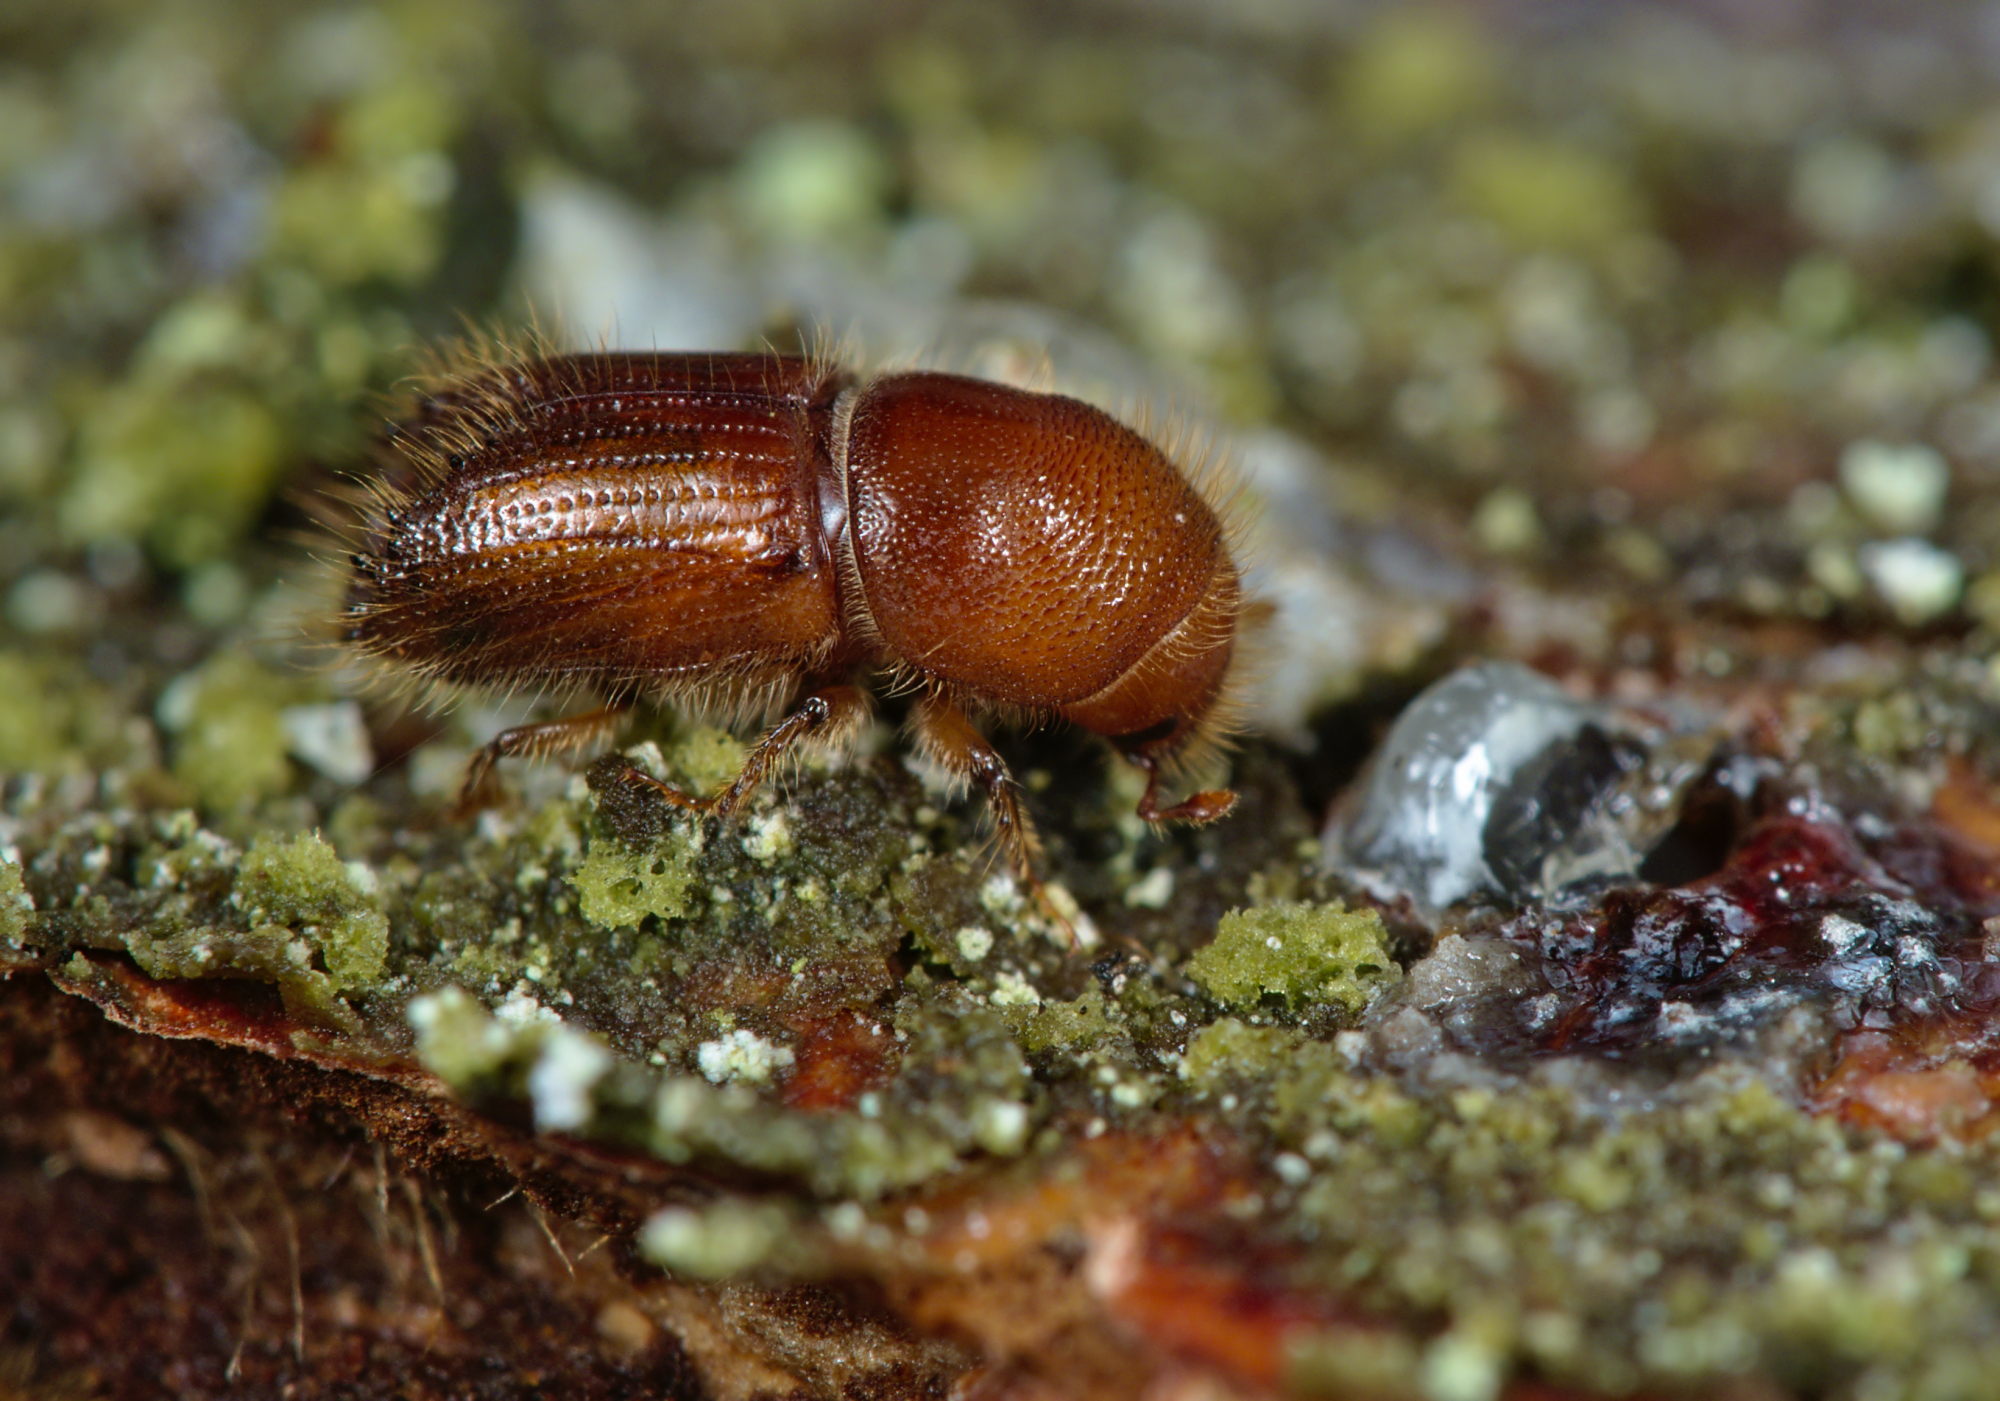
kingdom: Animalia
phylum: Arthropoda
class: Insecta
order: Coleoptera
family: Curculionidae
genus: Ips
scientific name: Ips typographus
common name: Eight-toothed spruce bark beetle
